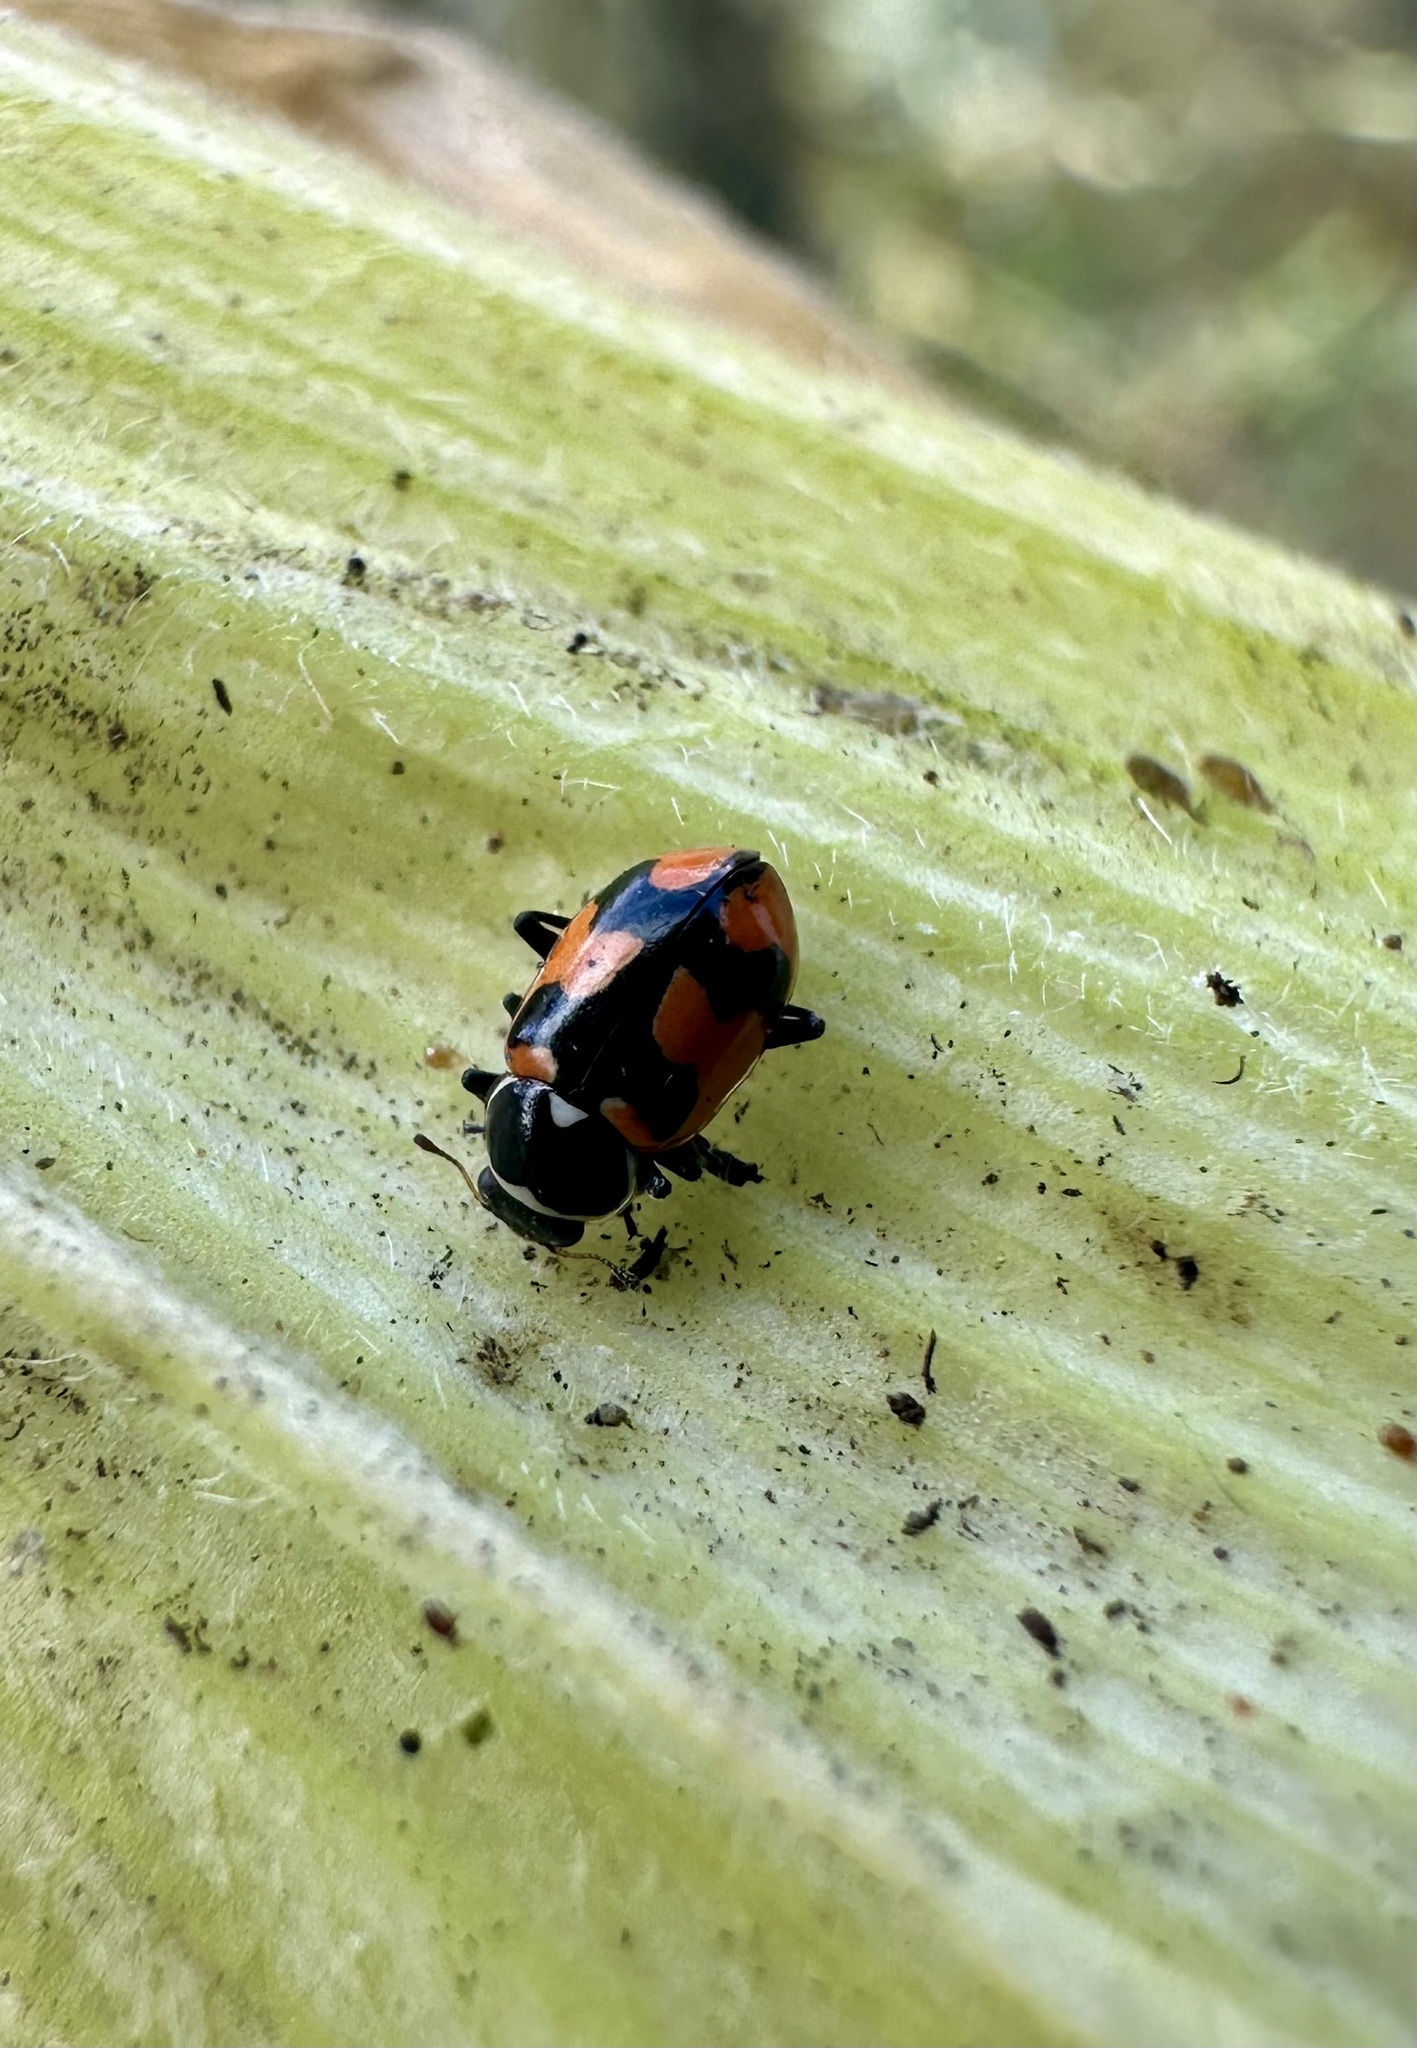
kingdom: Animalia
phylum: Arthropoda
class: Insecta
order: Coleoptera
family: Coccinellidae
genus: Eriopis
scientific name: Eriopis eschscholtzii
